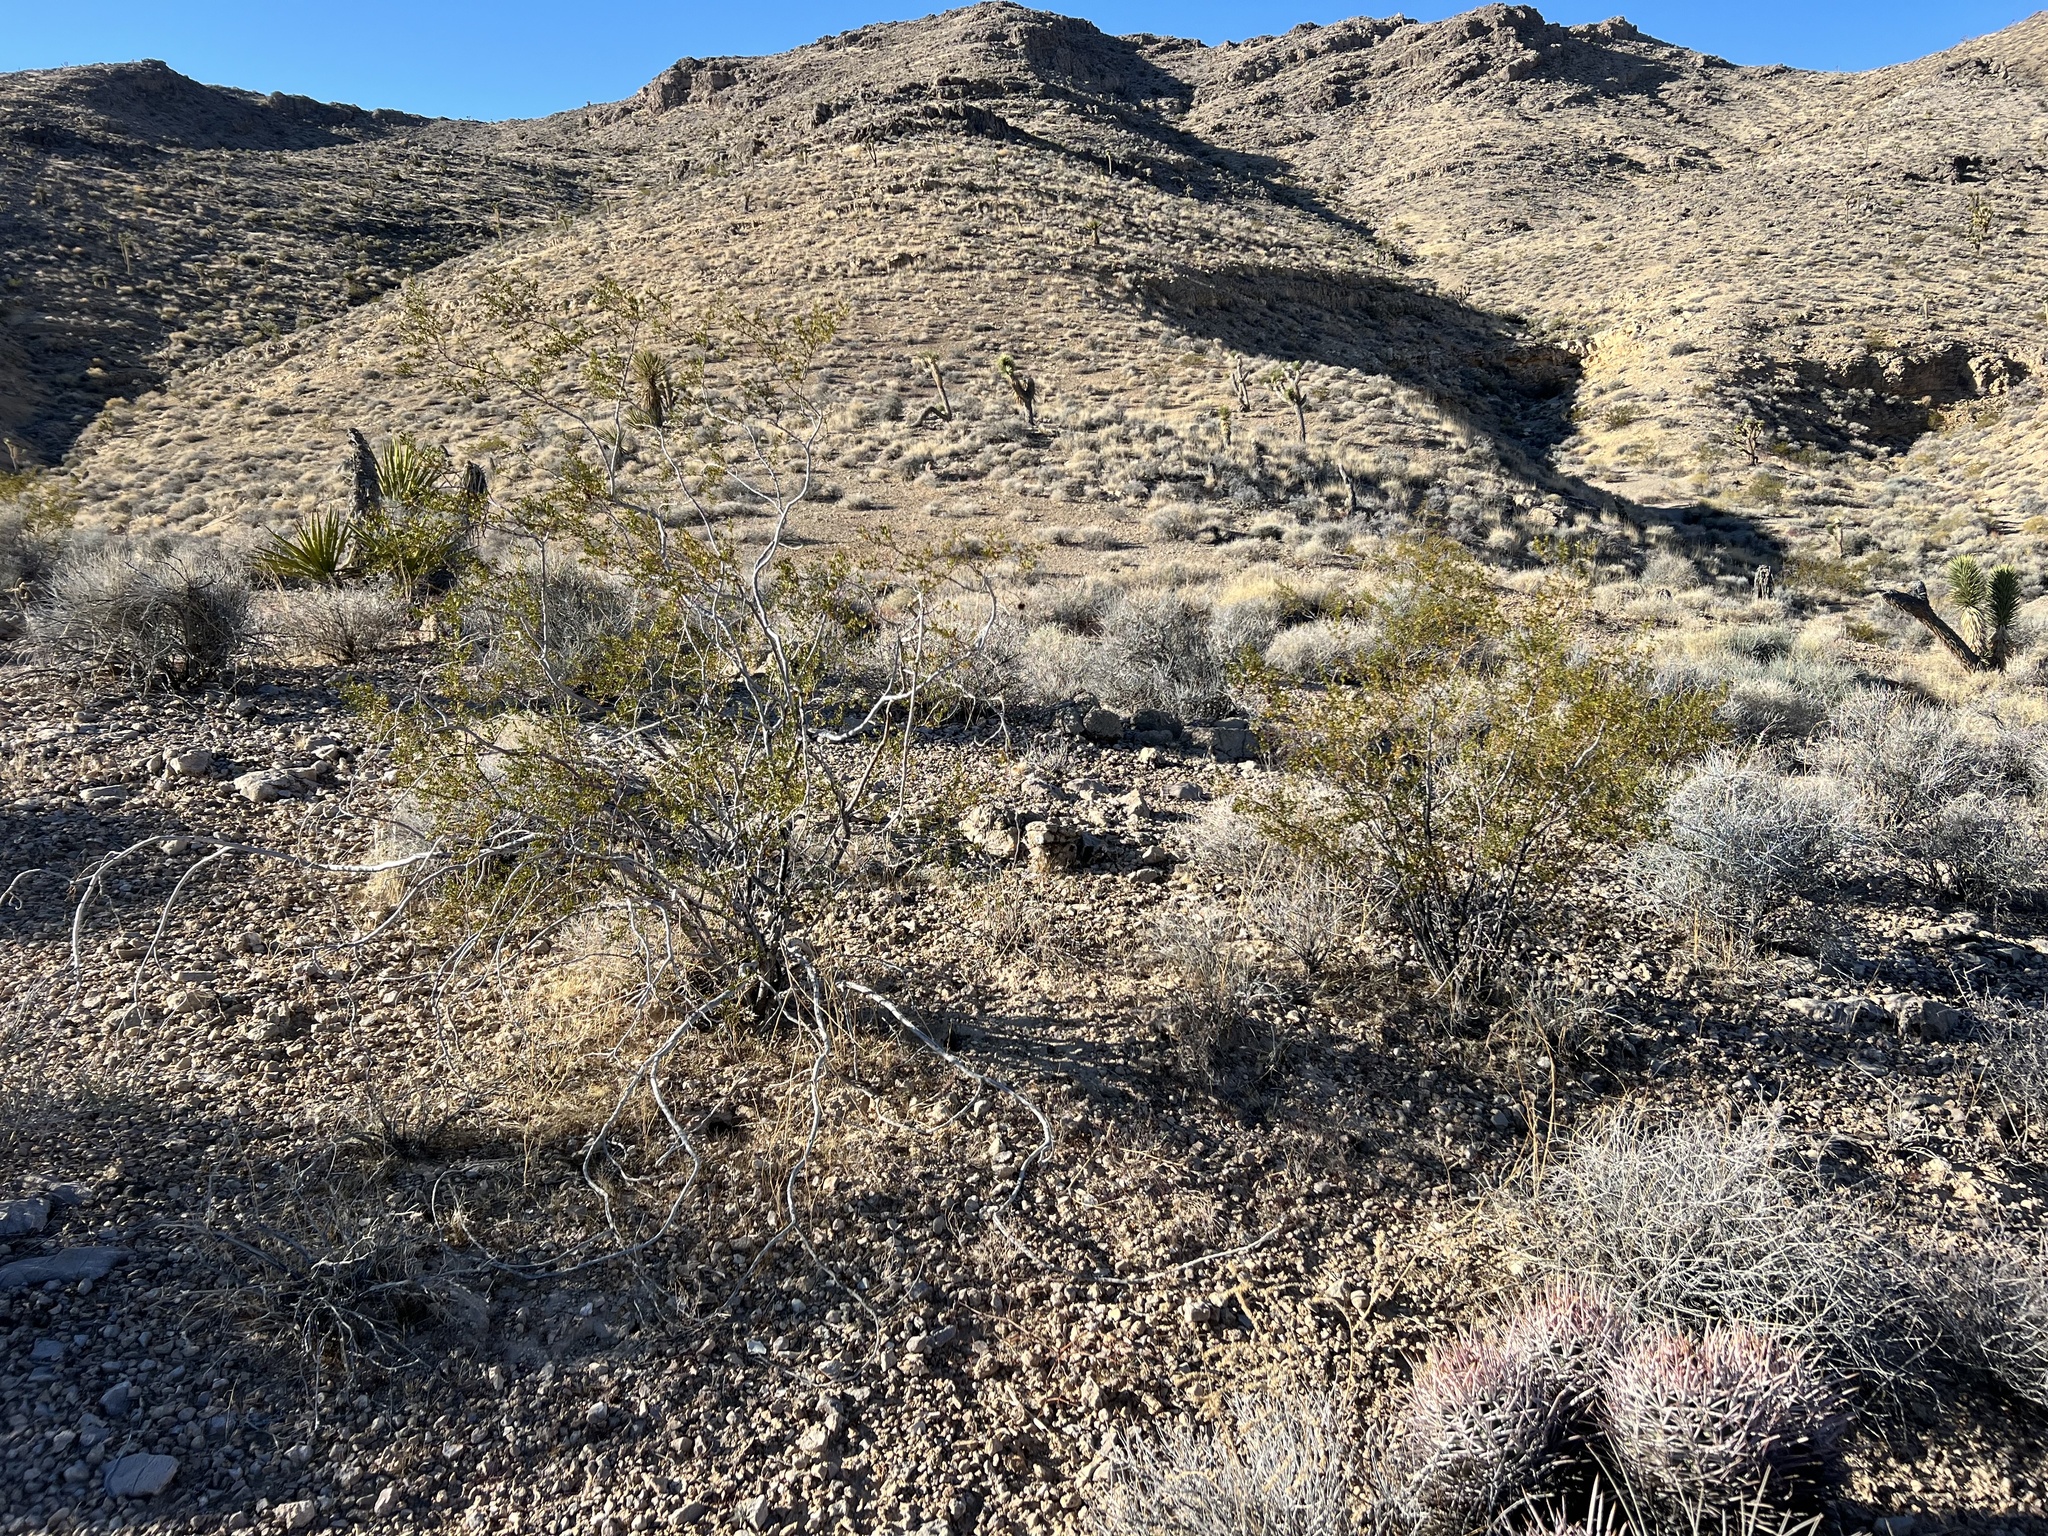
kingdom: Plantae
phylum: Tracheophyta
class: Magnoliopsida
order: Zygophyllales
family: Zygophyllaceae
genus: Larrea
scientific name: Larrea tridentata
